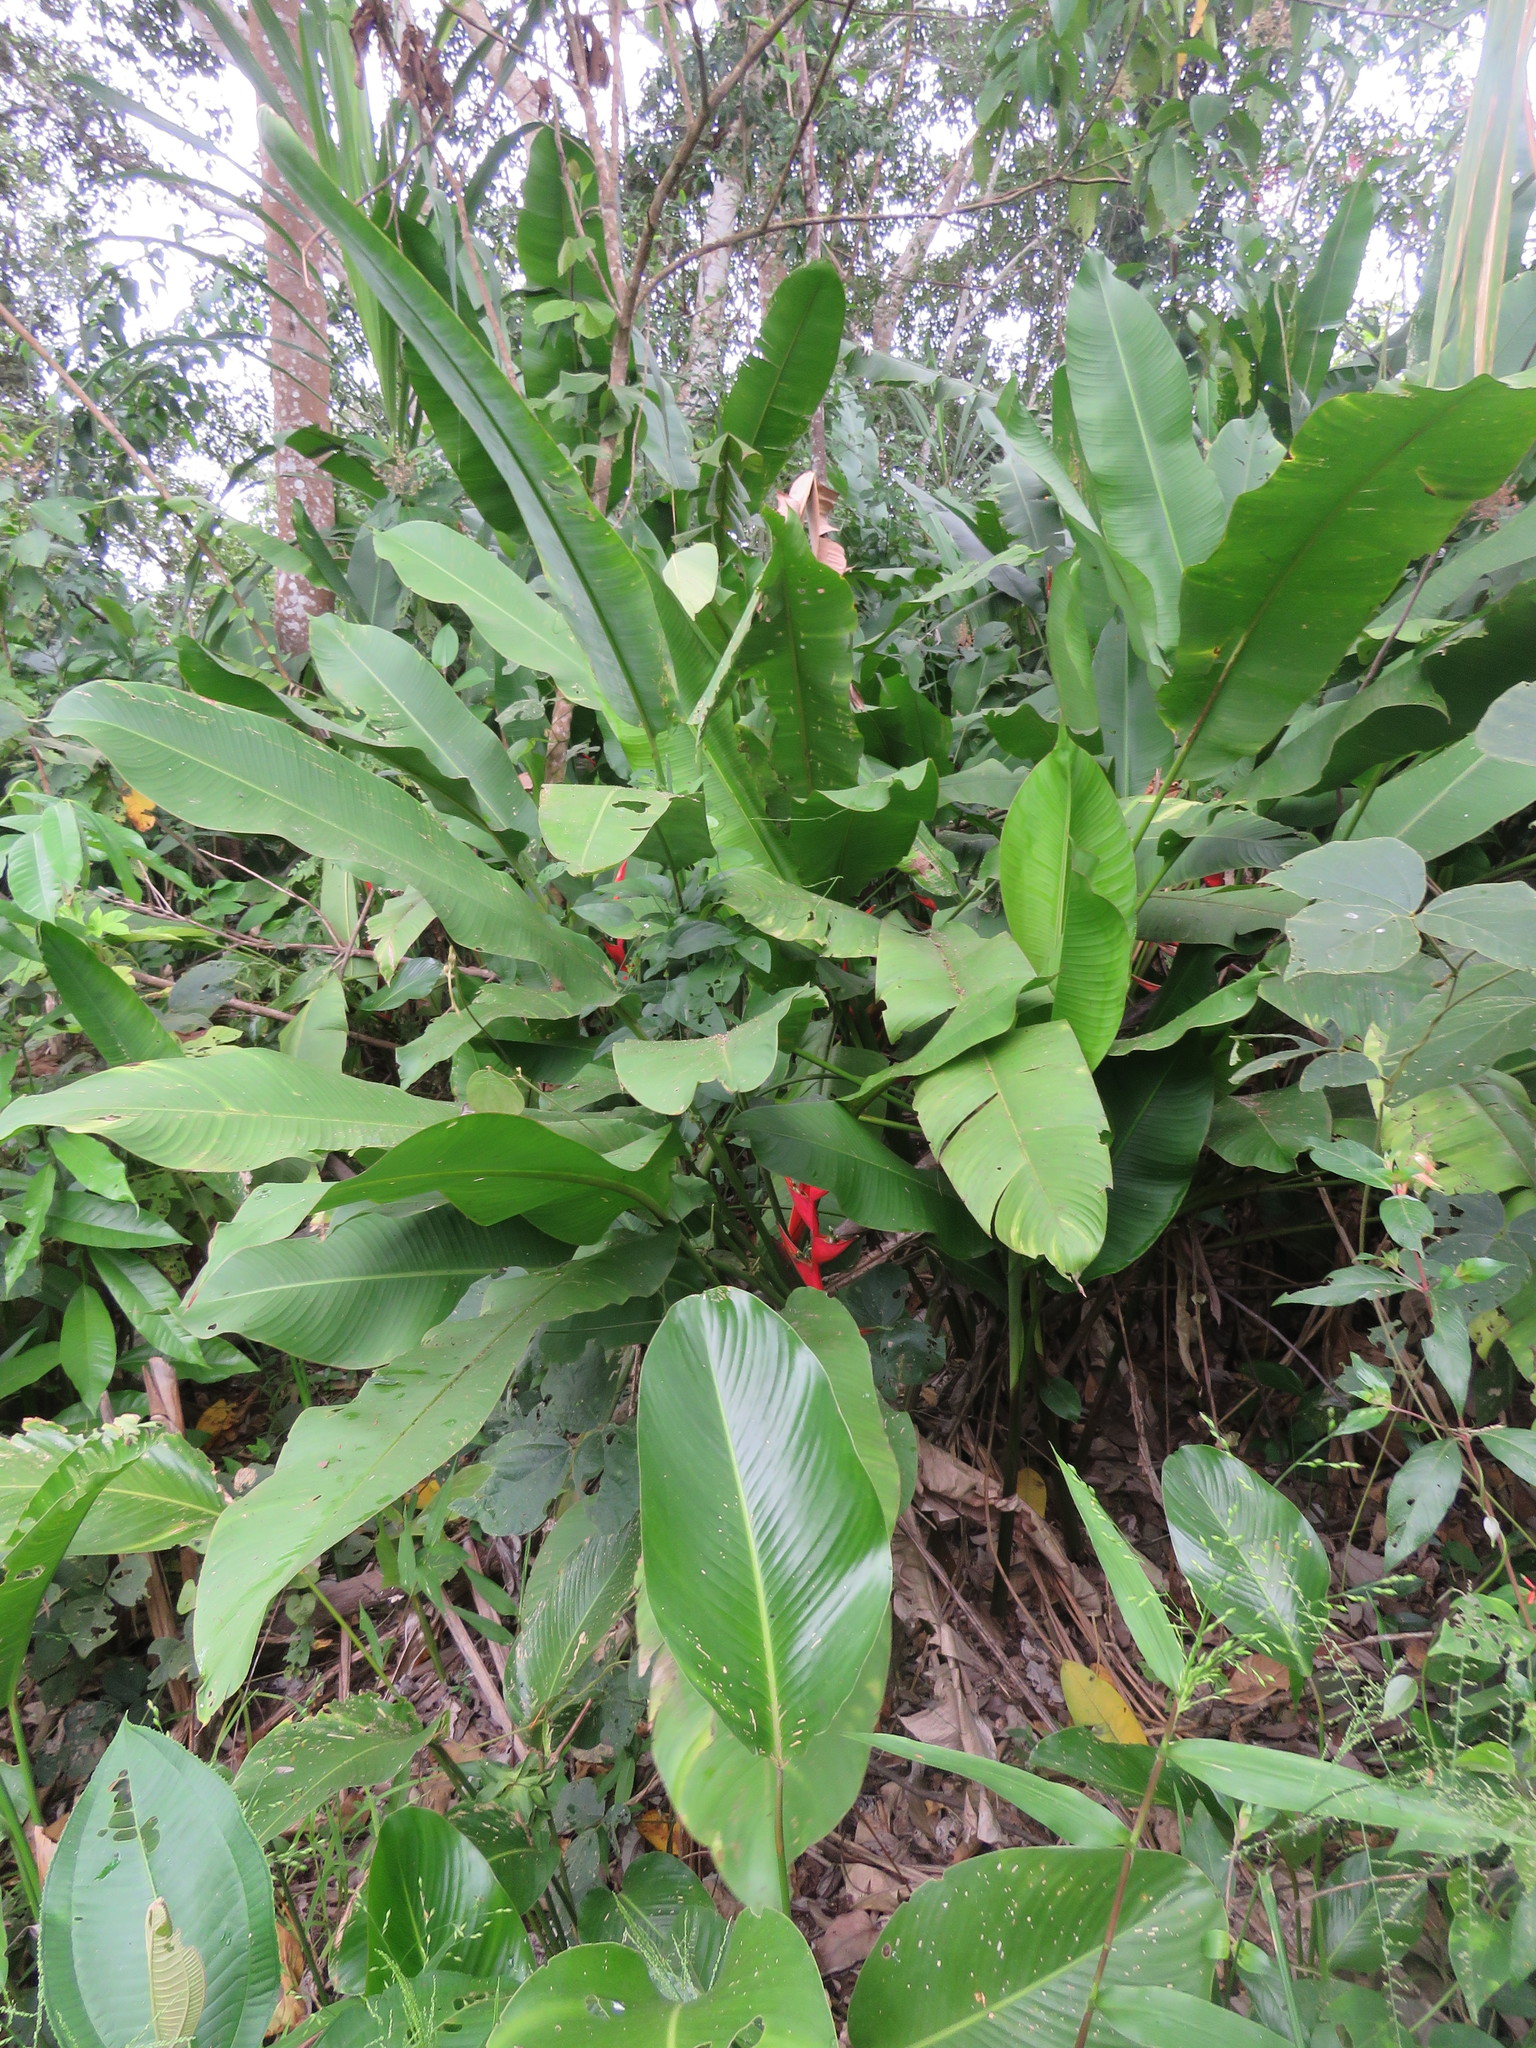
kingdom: Plantae
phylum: Tracheophyta
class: Liliopsida
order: Zingiberales
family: Heliconiaceae
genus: Heliconia
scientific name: Heliconia stricta
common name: Small lobster claw
